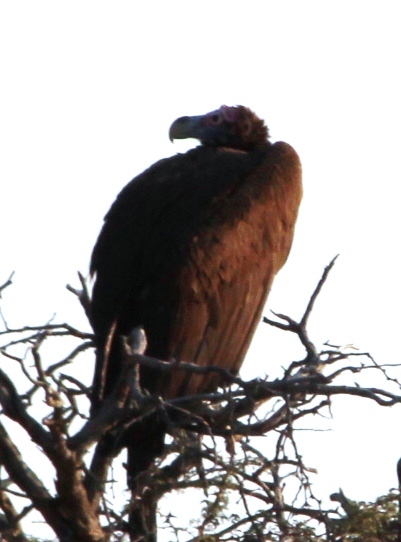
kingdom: Animalia
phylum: Chordata
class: Aves
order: Accipitriformes
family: Accipitridae
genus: Torgos
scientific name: Torgos tracheliotos
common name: Lappet-faced vulture
